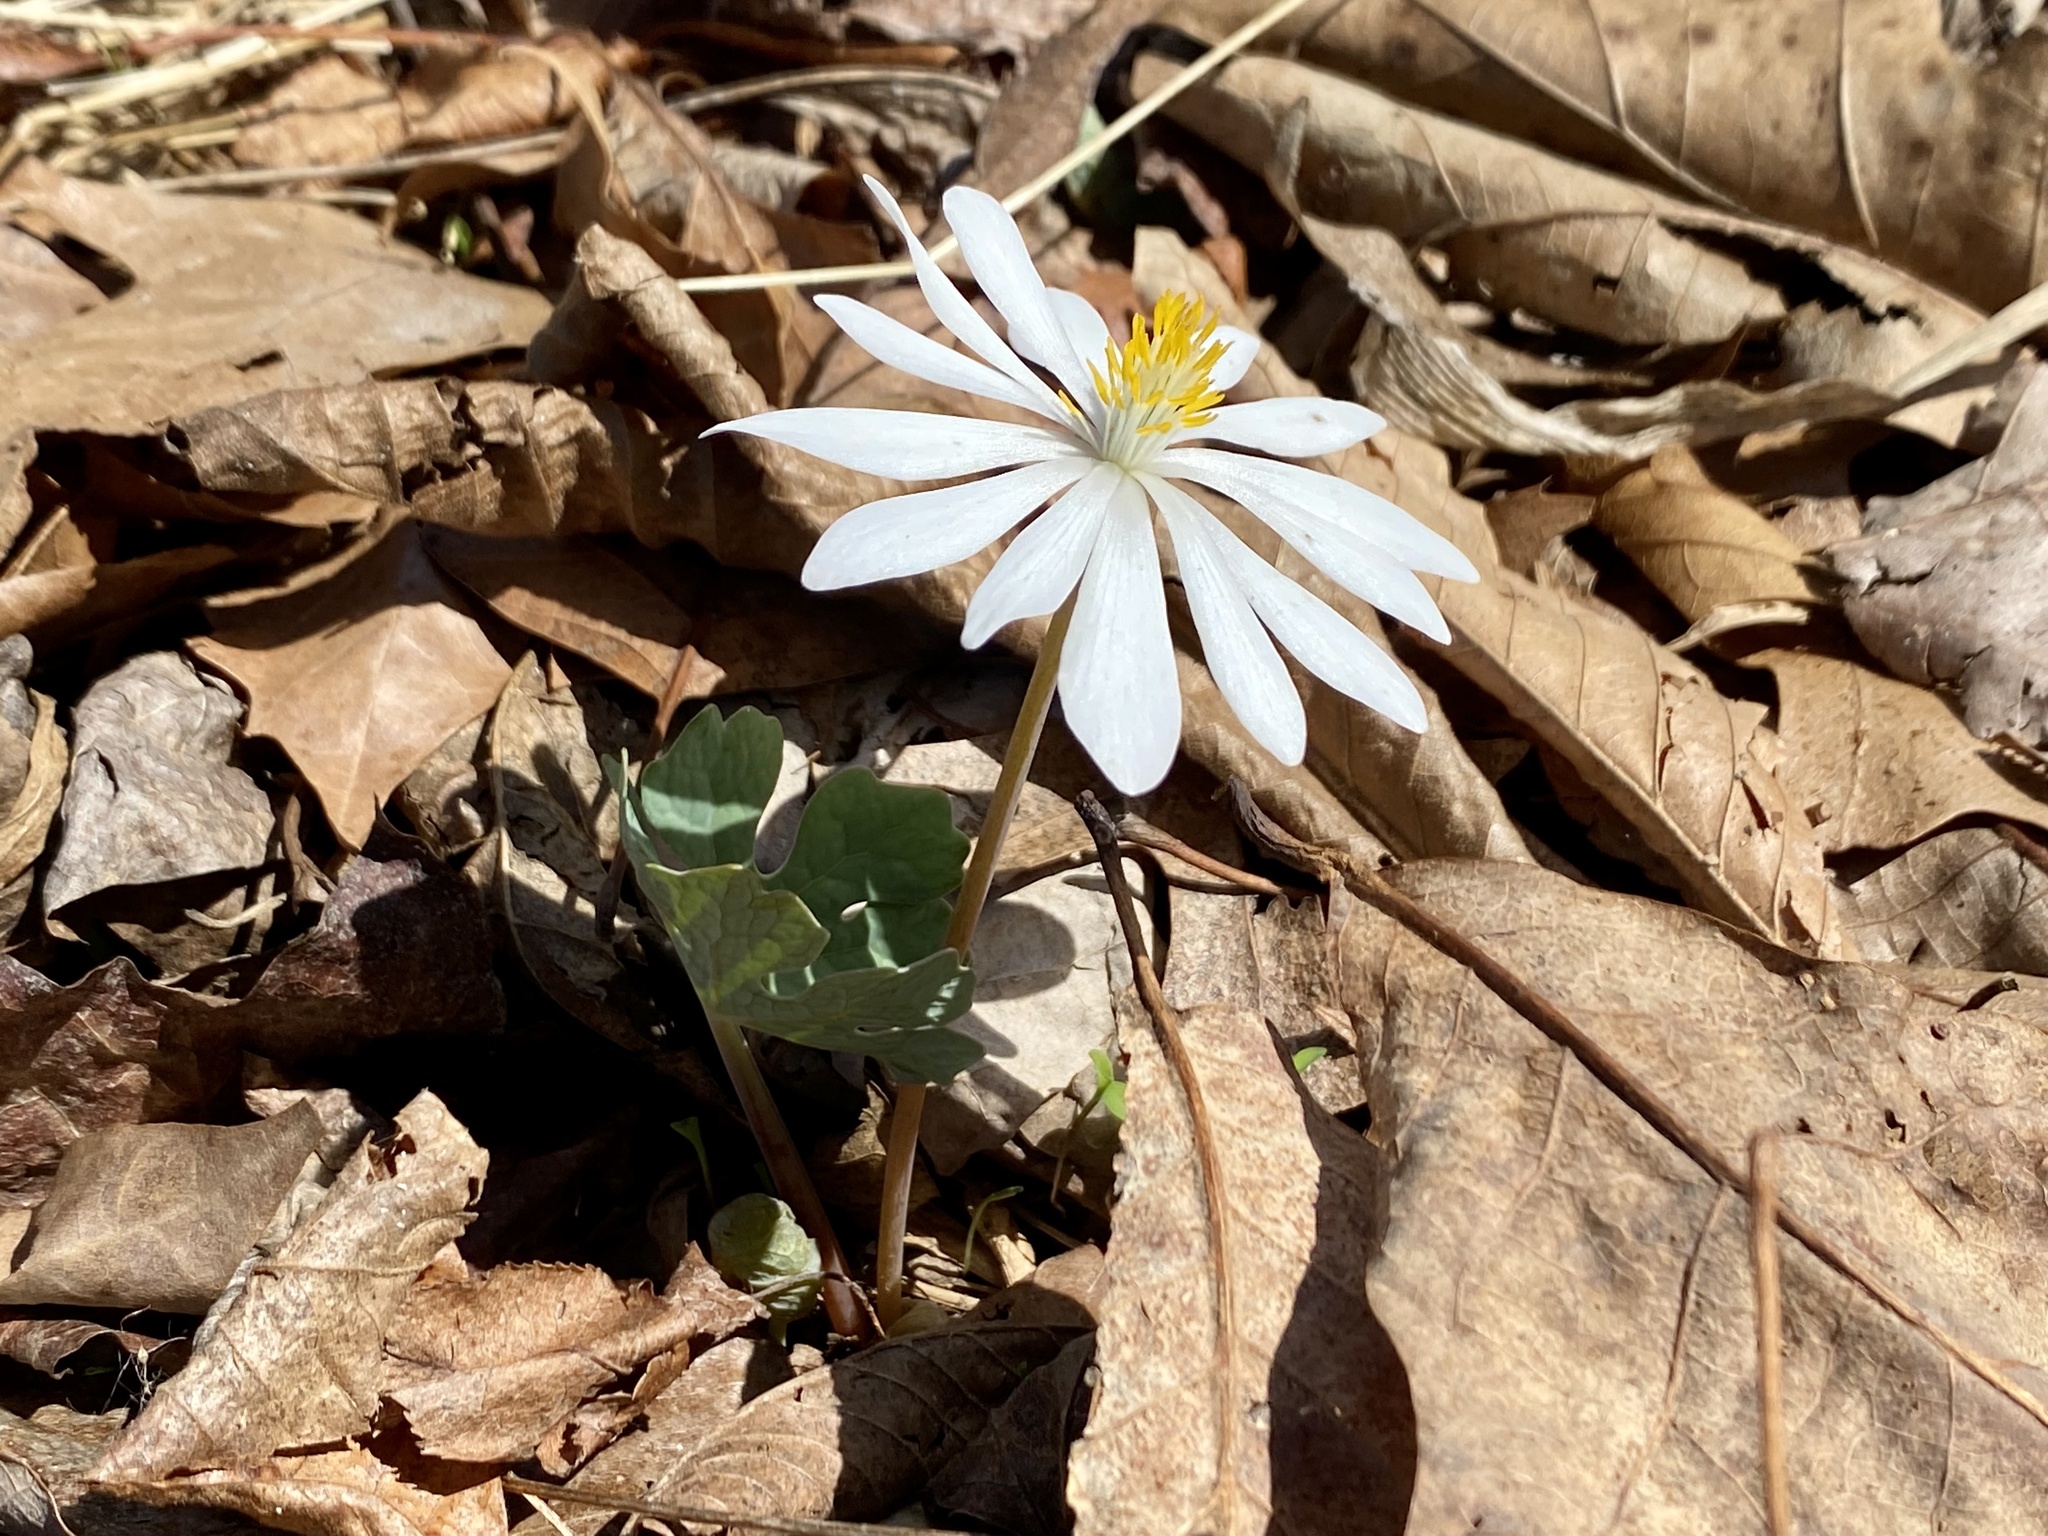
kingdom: Plantae
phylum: Tracheophyta
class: Magnoliopsida
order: Ranunculales
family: Papaveraceae
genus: Sanguinaria
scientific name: Sanguinaria canadensis
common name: Bloodroot
